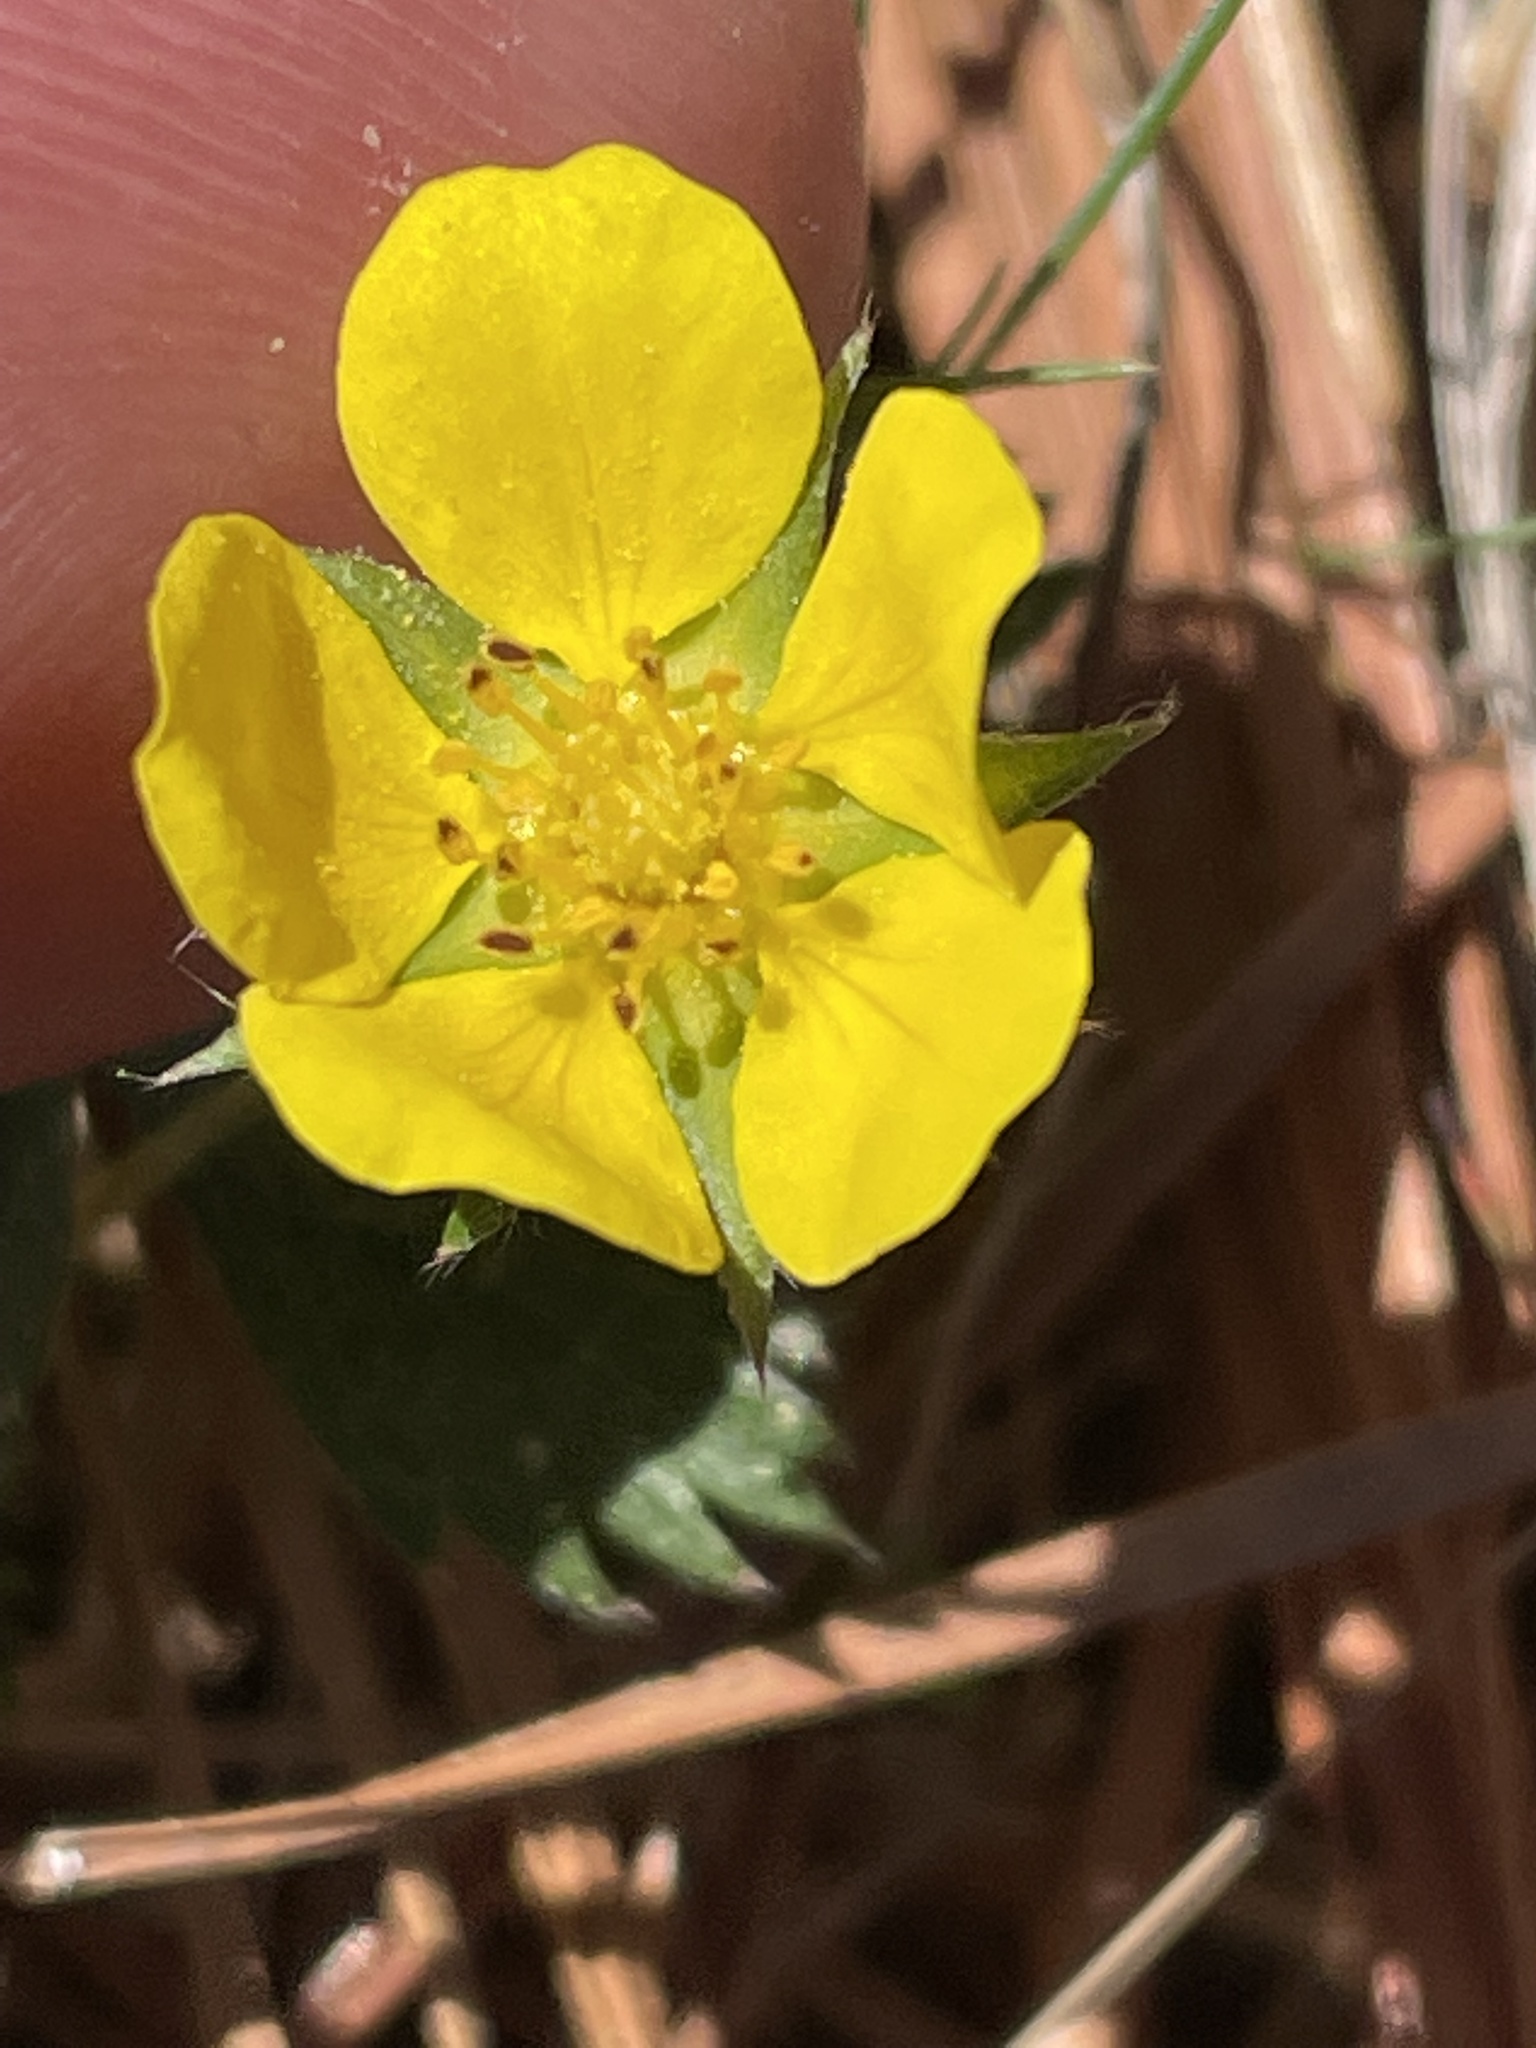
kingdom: Plantae
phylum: Tracheophyta
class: Magnoliopsida
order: Rosales
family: Rosaceae
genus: Potentilla
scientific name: Potentilla canadensis
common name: Canada cinquefoil
